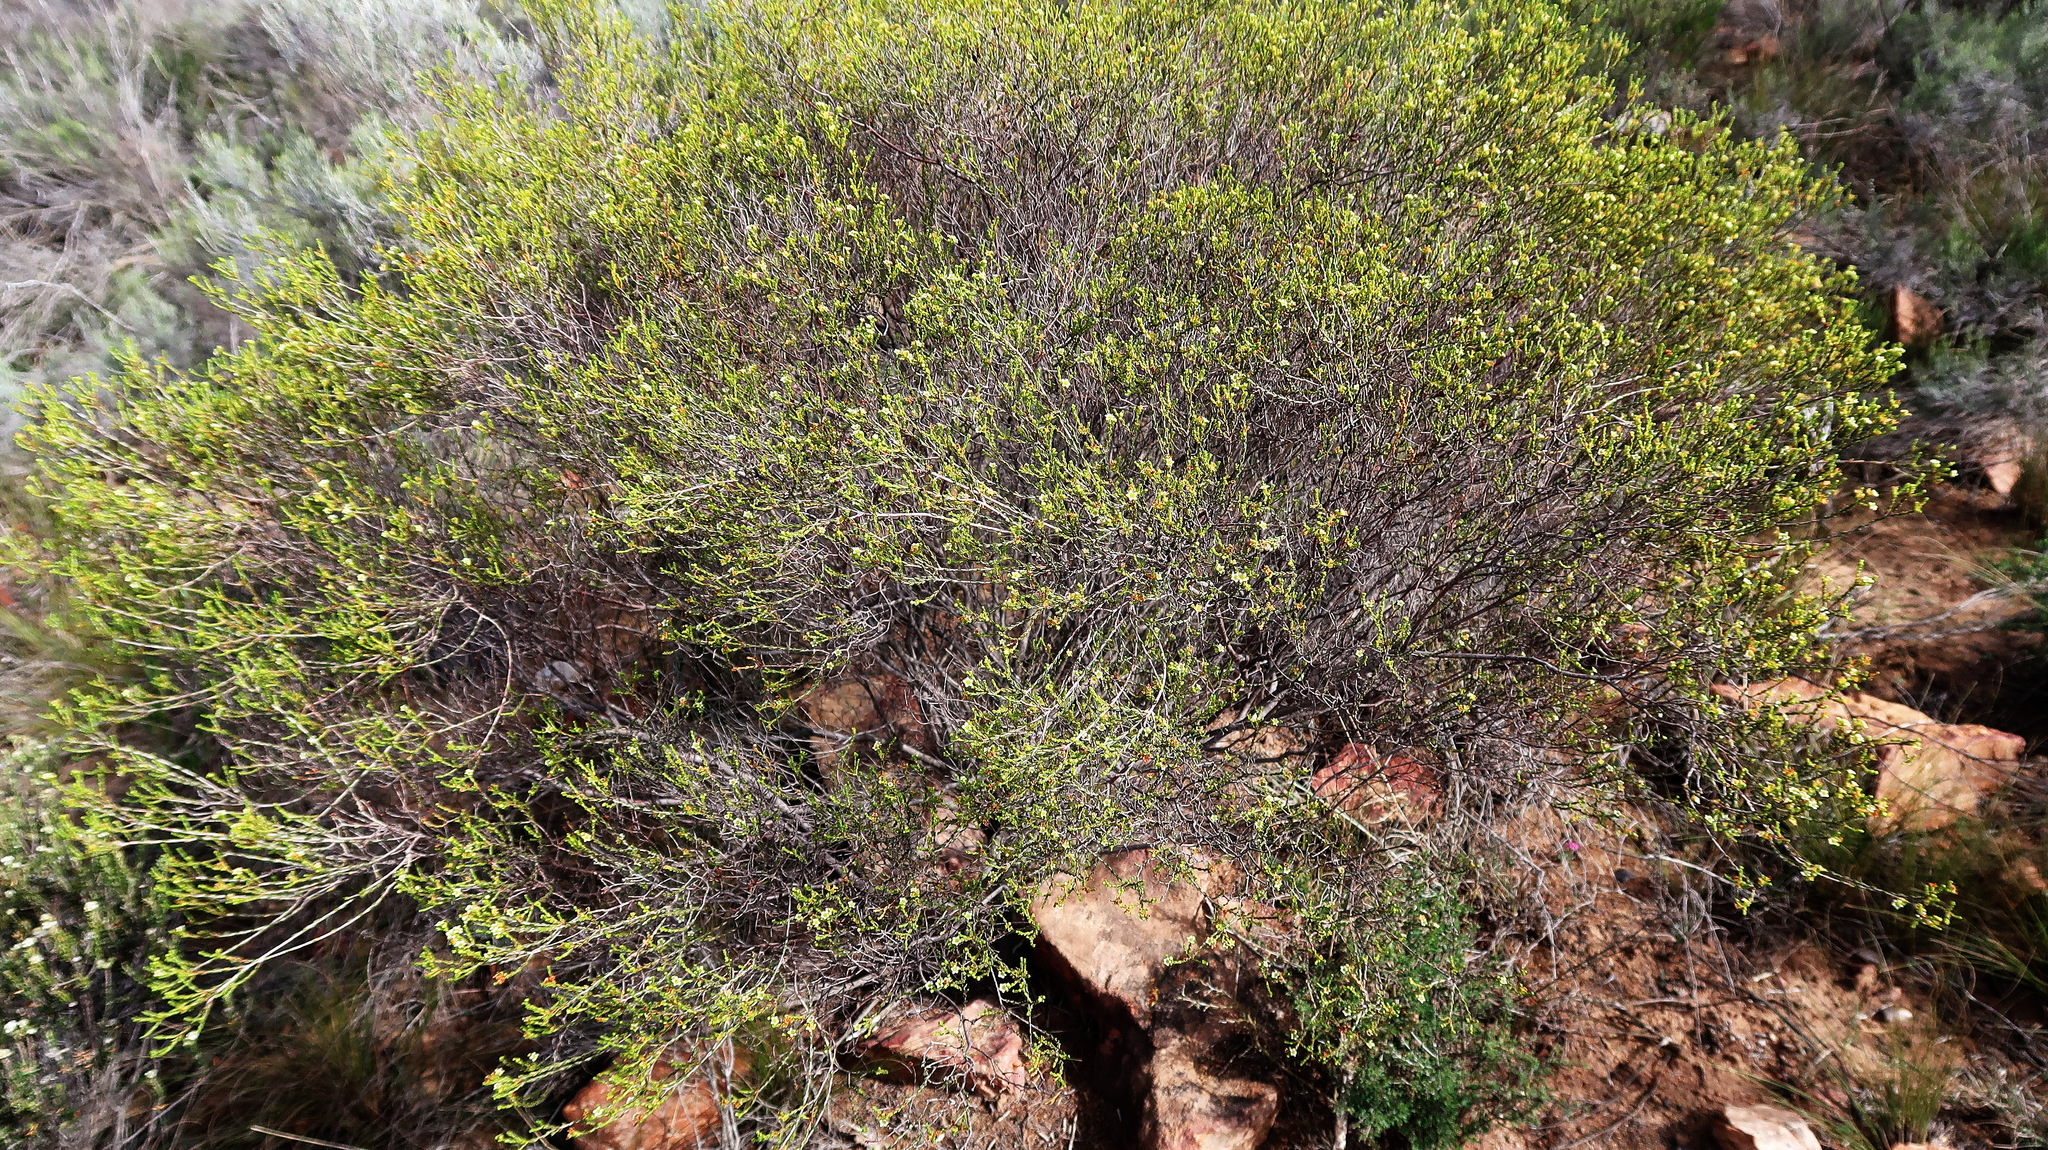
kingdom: Plantae
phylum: Tracheophyta
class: Magnoliopsida
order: Sapindales
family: Rutaceae
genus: Diosma
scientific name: Diosma prama
